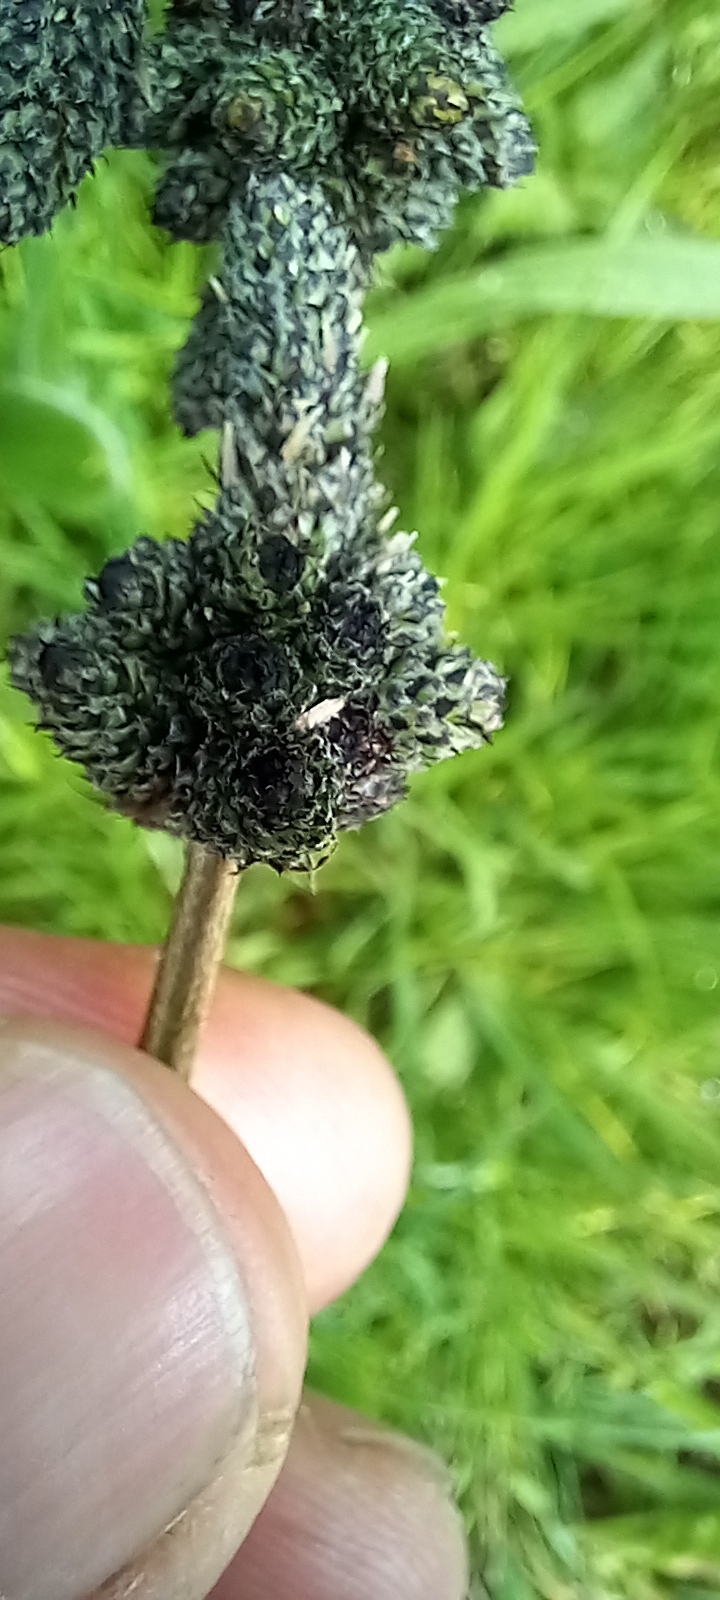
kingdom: Plantae
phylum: Tracheophyta
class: Magnoliopsida
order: Lamiales
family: Plantaginaceae
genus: Plantago
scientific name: Plantago lanceolata
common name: Ribwort plantain
